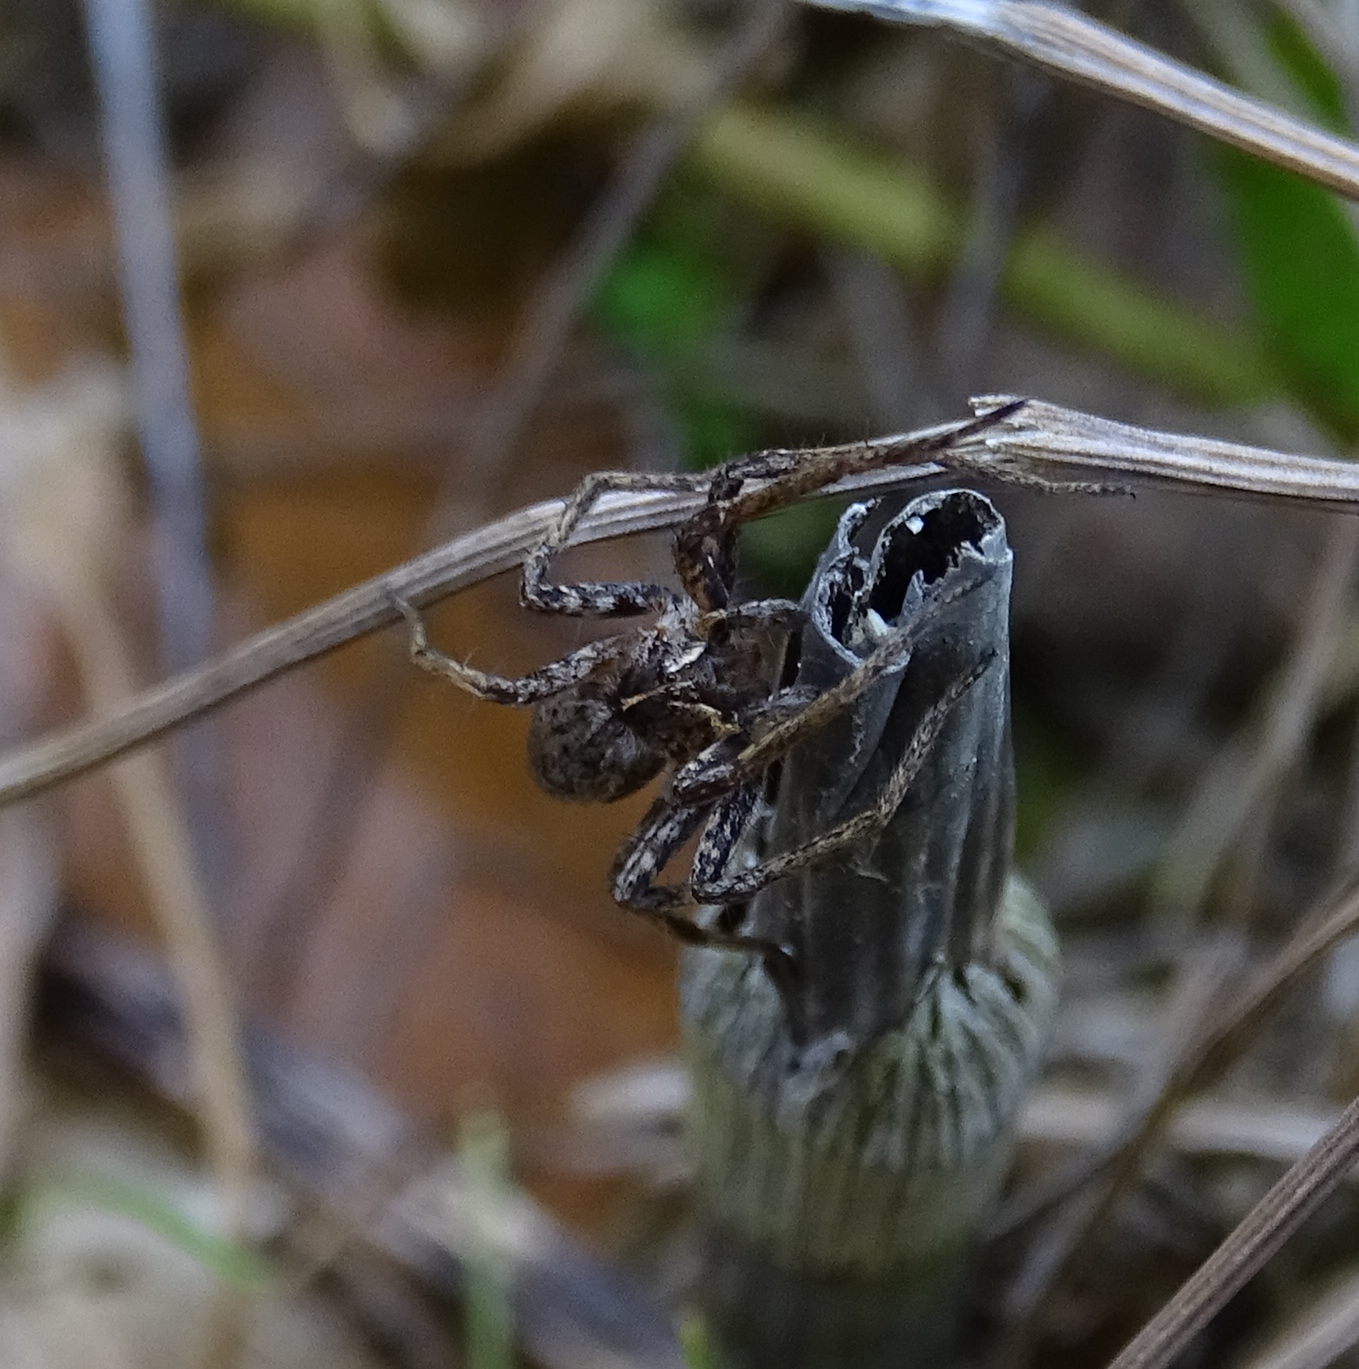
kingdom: Animalia
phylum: Arthropoda
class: Arachnida
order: Araneae
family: Pisauridae
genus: Pisaura
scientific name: Pisaura mirabilis
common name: Tent spider
